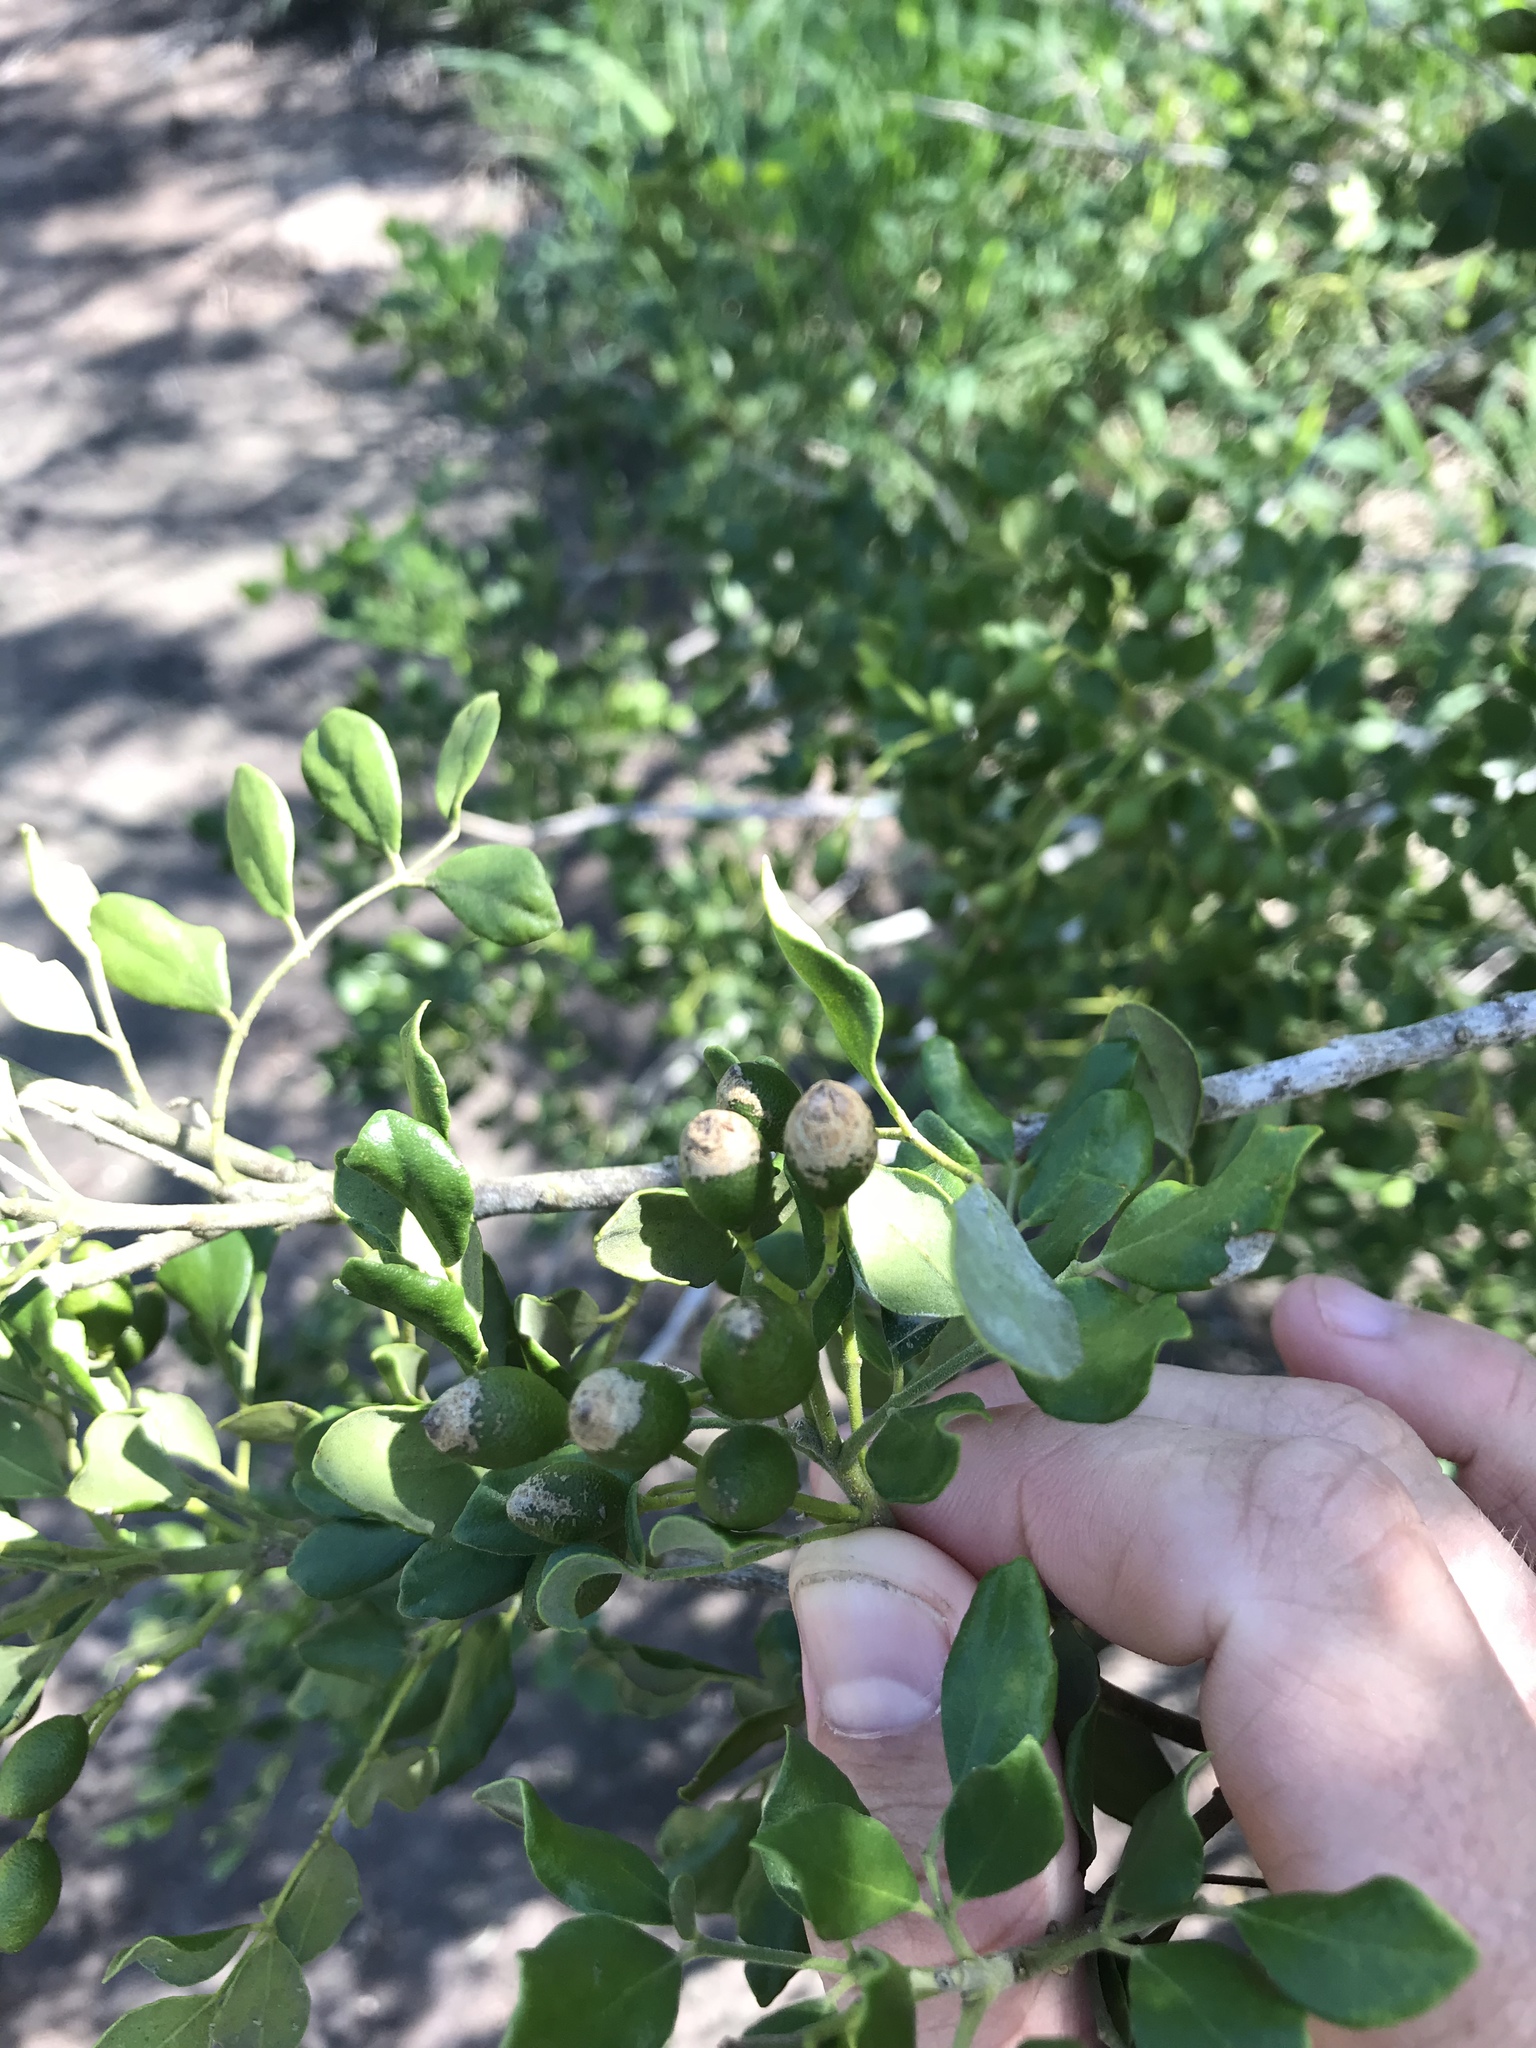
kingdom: Plantae
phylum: Tracheophyta
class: Magnoliopsida
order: Sapindales
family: Rutaceae
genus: Amyris
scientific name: Amyris madrensis
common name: Mountain torchwood
